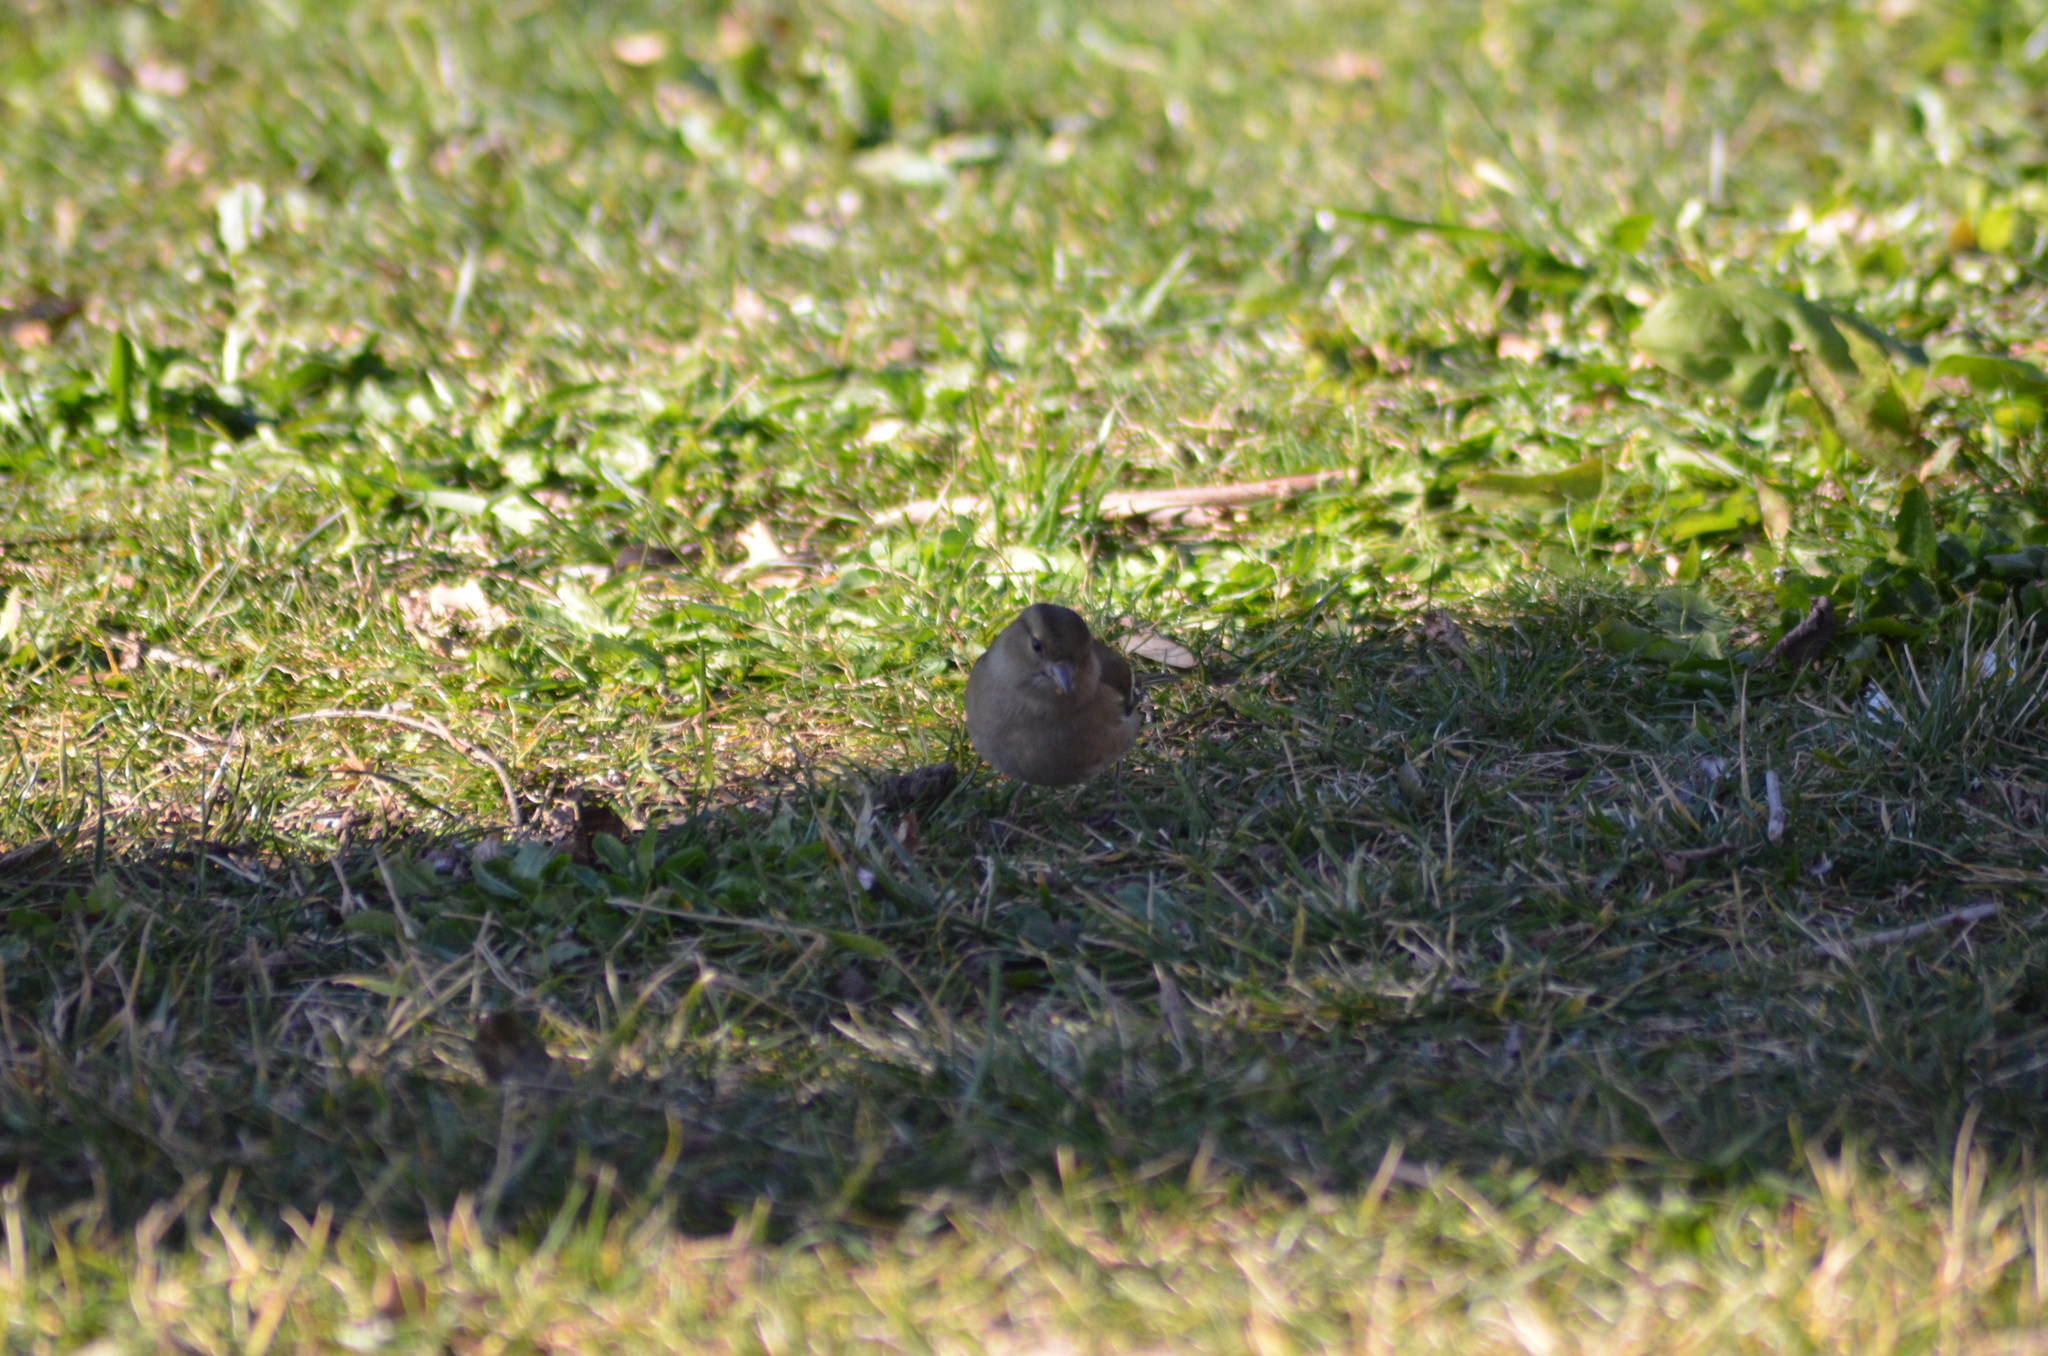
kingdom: Animalia
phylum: Chordata
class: Aves
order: Passeriformes
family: Fringillidae
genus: Fringilla
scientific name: Fringilla coelebs
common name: Common chaffinch
